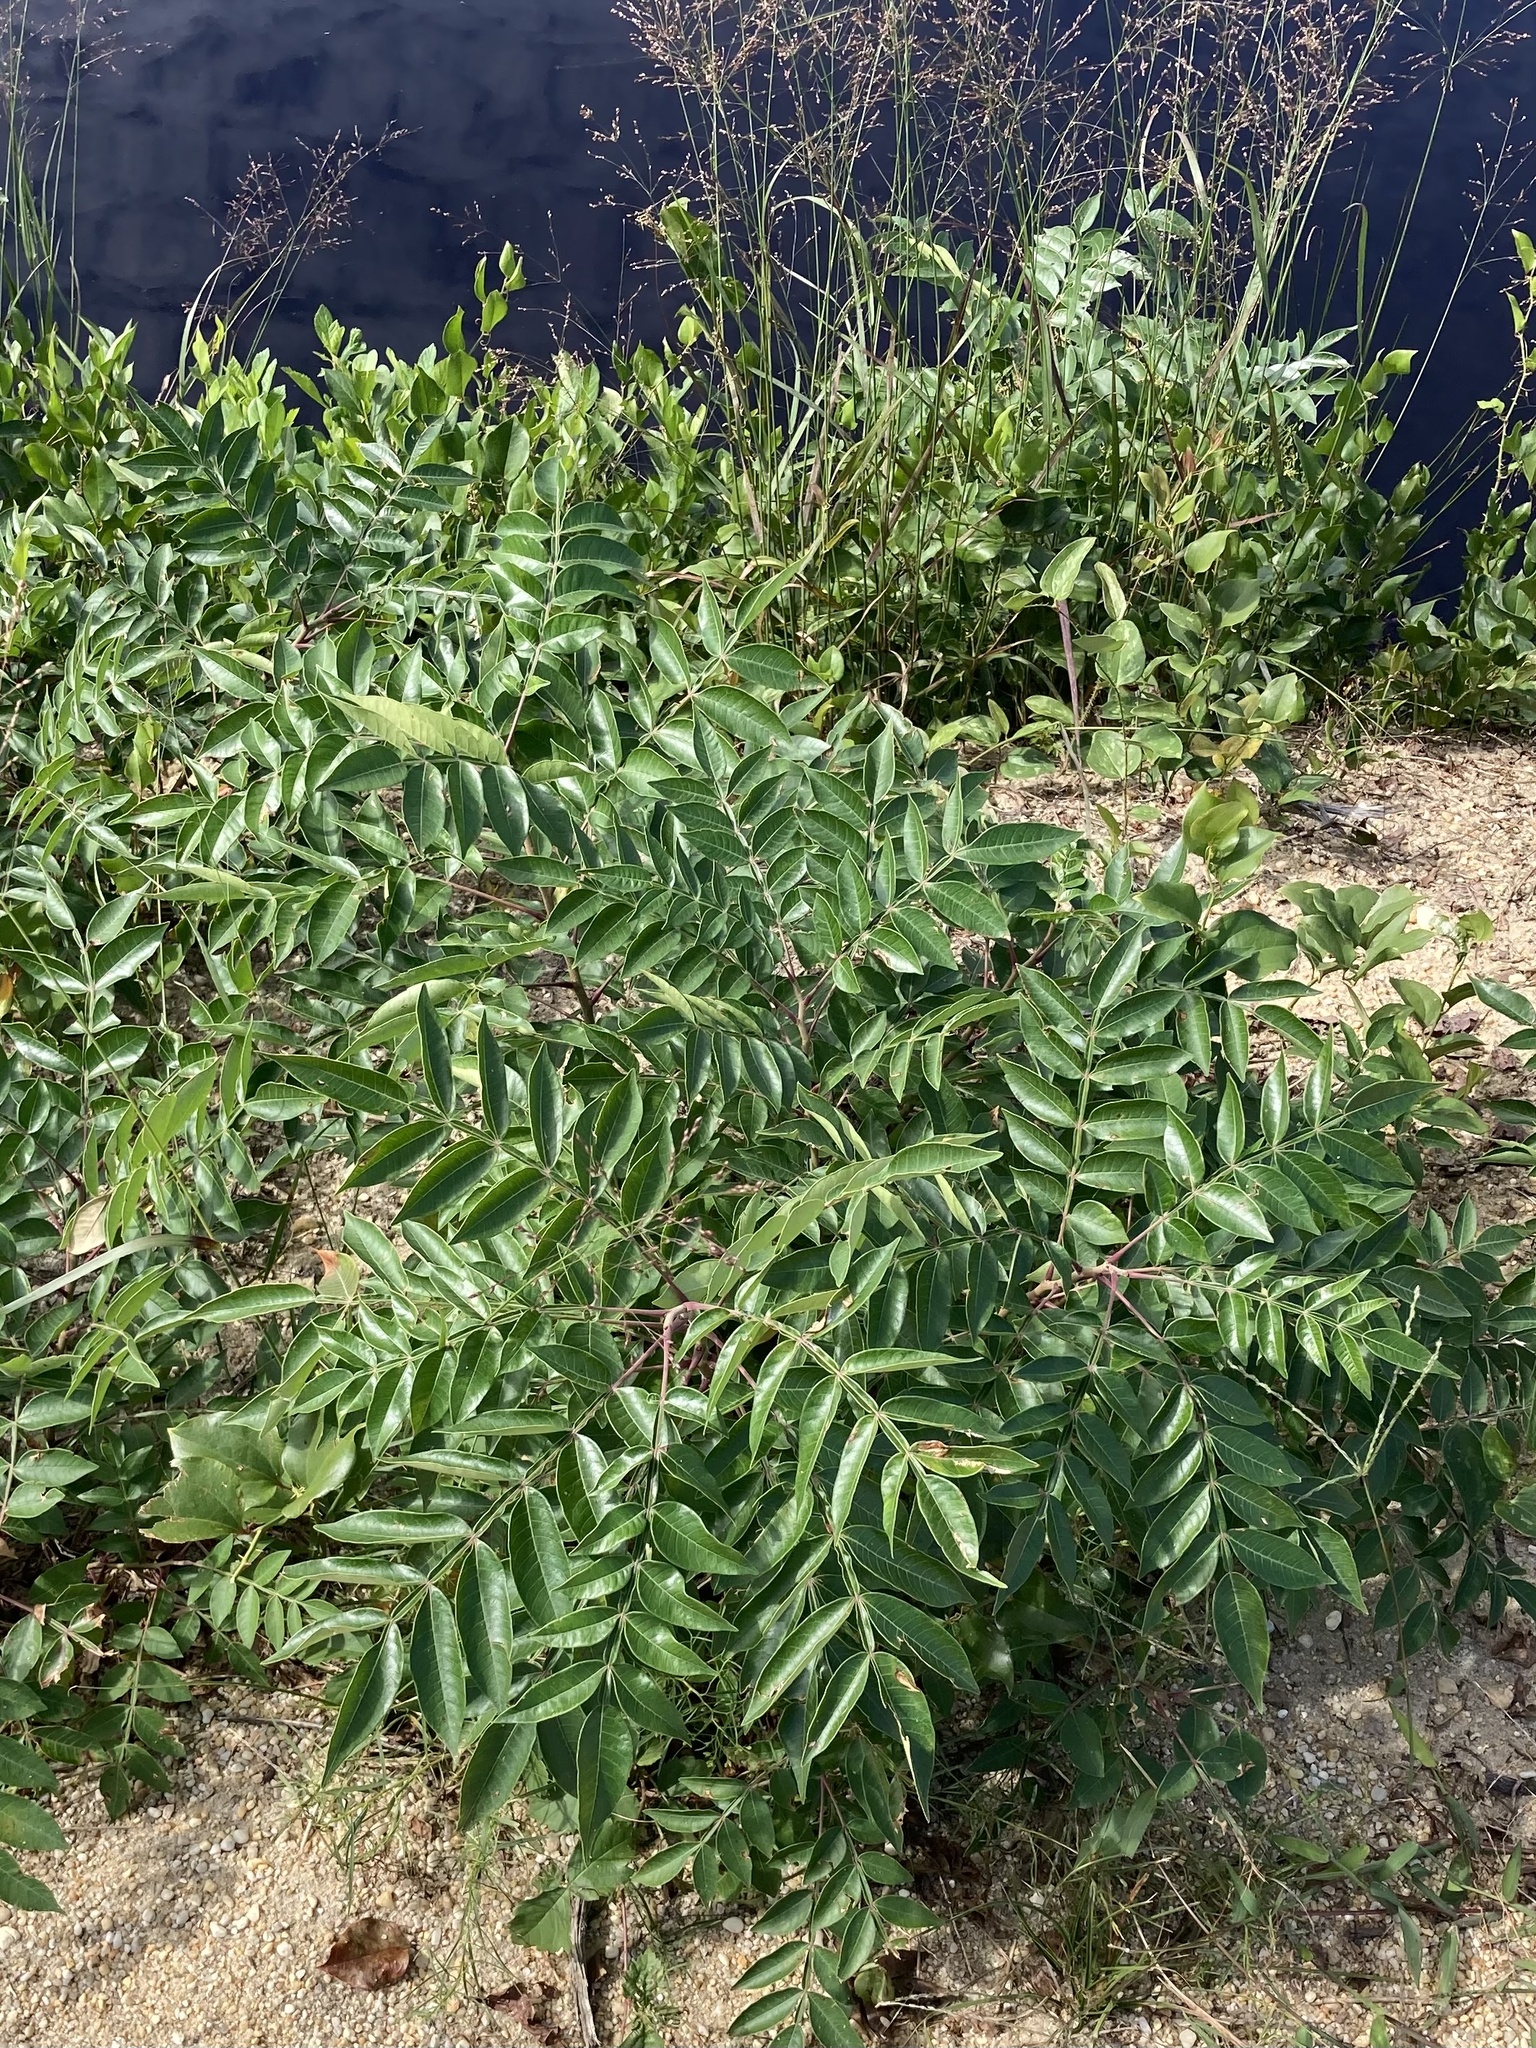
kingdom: Plantae
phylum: Tracheophyta
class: Magnoliopsida
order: Sapindales
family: Anacardiaceae
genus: Rhus
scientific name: Rhus copallina
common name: Shining sumac
